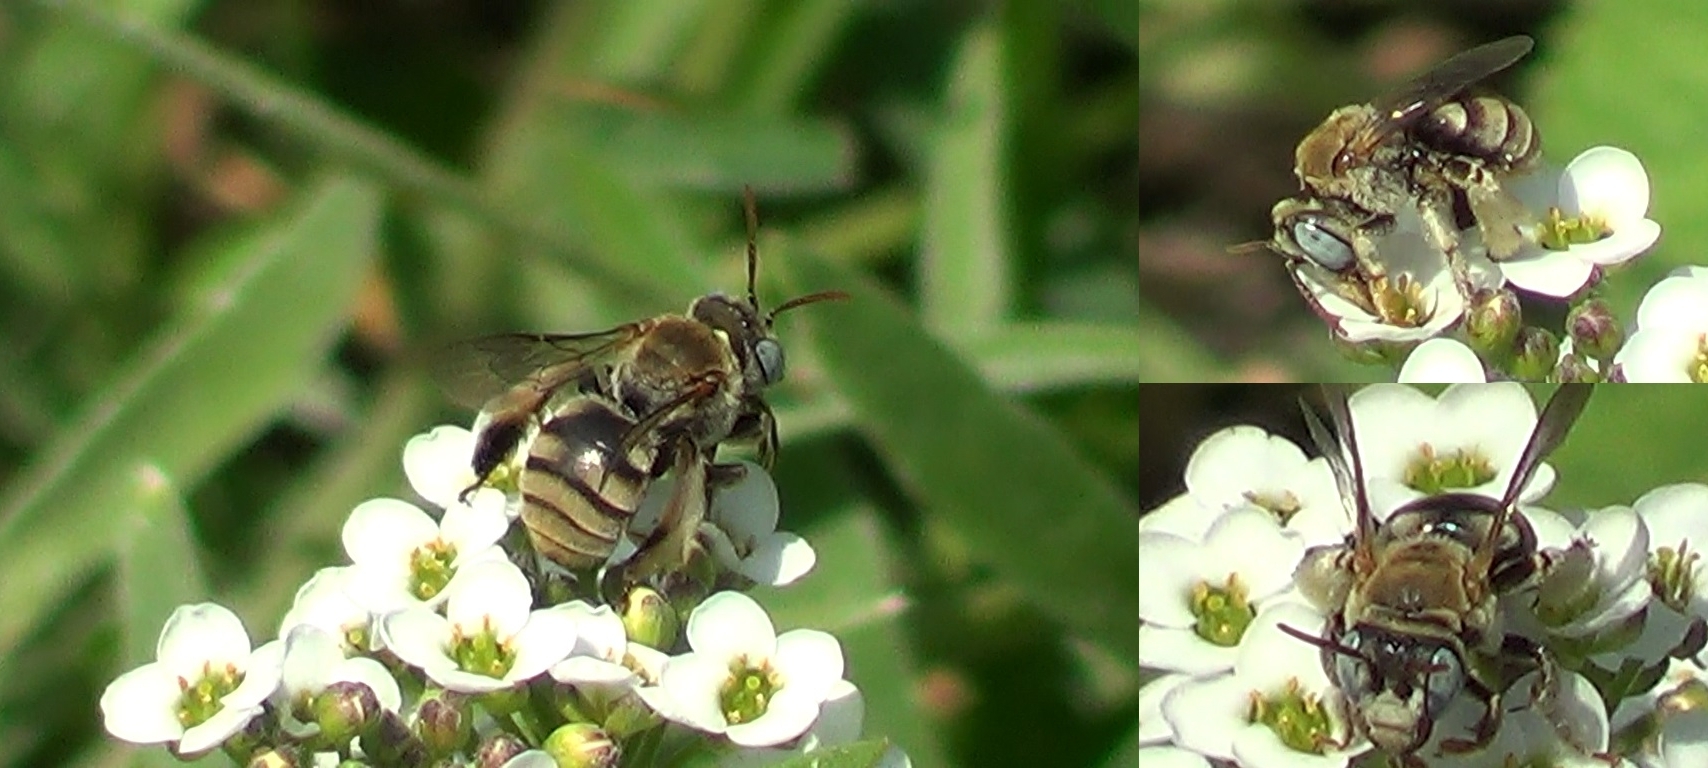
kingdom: Animalia
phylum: Arthropoda
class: Insecta
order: Hymenoptera
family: Apidae
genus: Tarsalia
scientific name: Tarsalia ancyliformis
